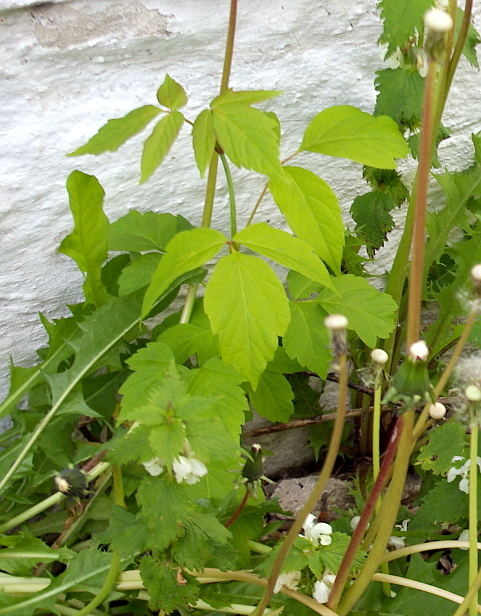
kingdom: Plantae
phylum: Tracheophyta
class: Magnoliopsida
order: Sapindales
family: Sapindaceae
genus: Acer
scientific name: Acer negundo
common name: Ashleaf maple
